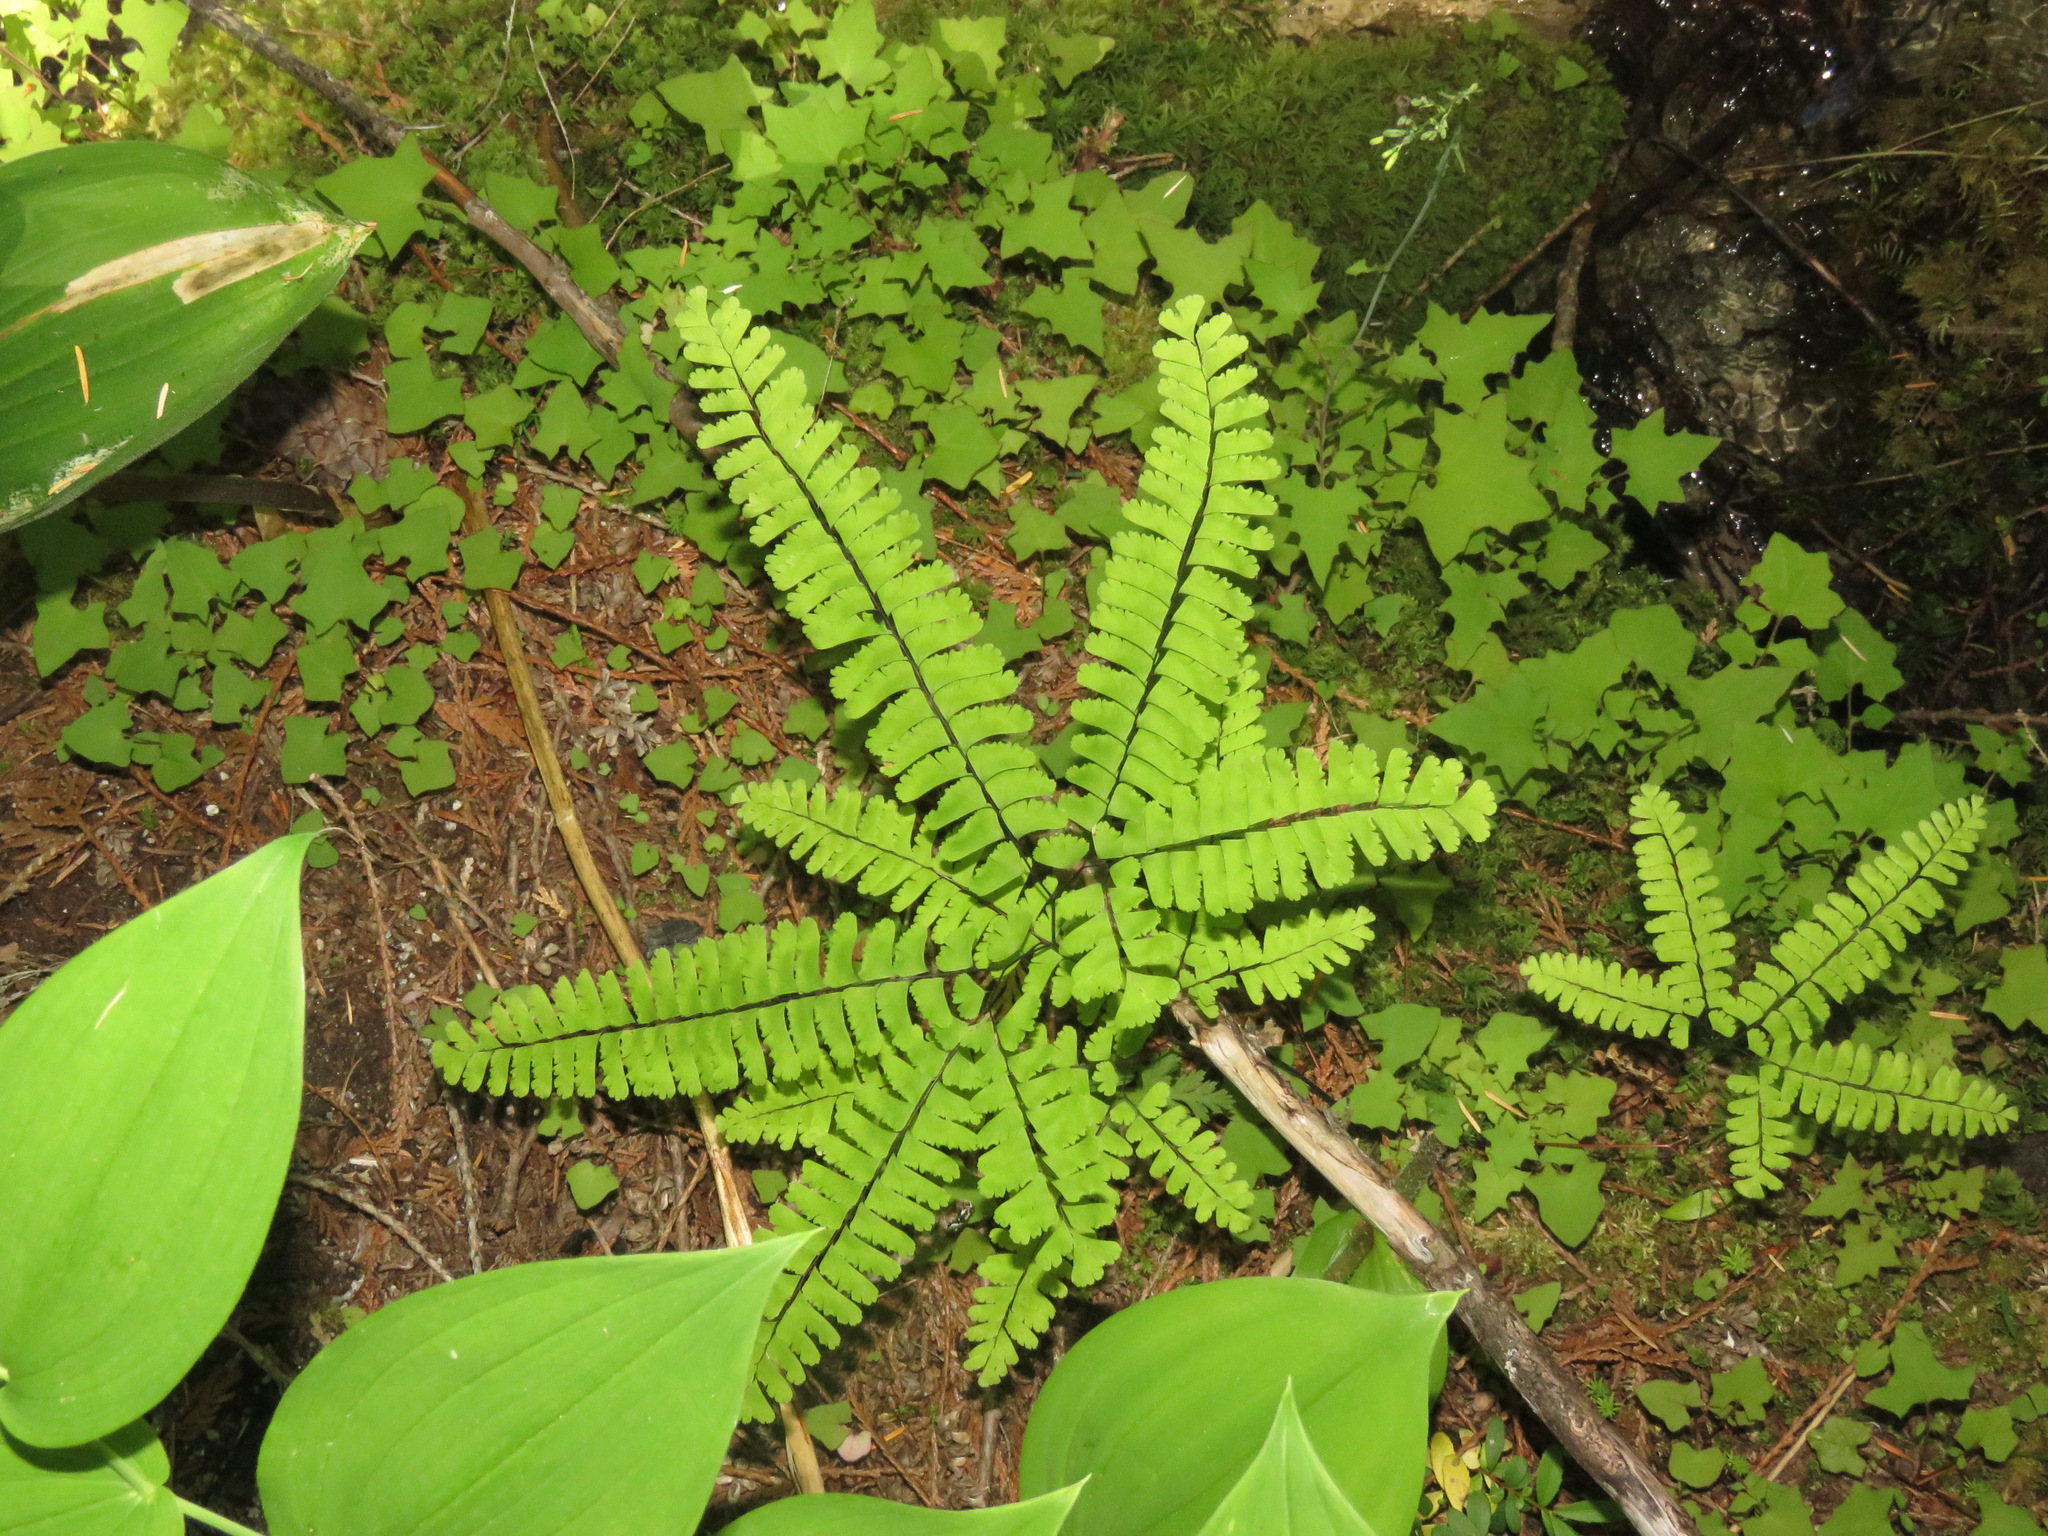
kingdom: Plantae
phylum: Tracheophyta
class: Polypodiopsida
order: Polypodiales
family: Pteridaceae
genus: Adiantum
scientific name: Adiantum aleuticum
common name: Aleutian maidenhair fern
